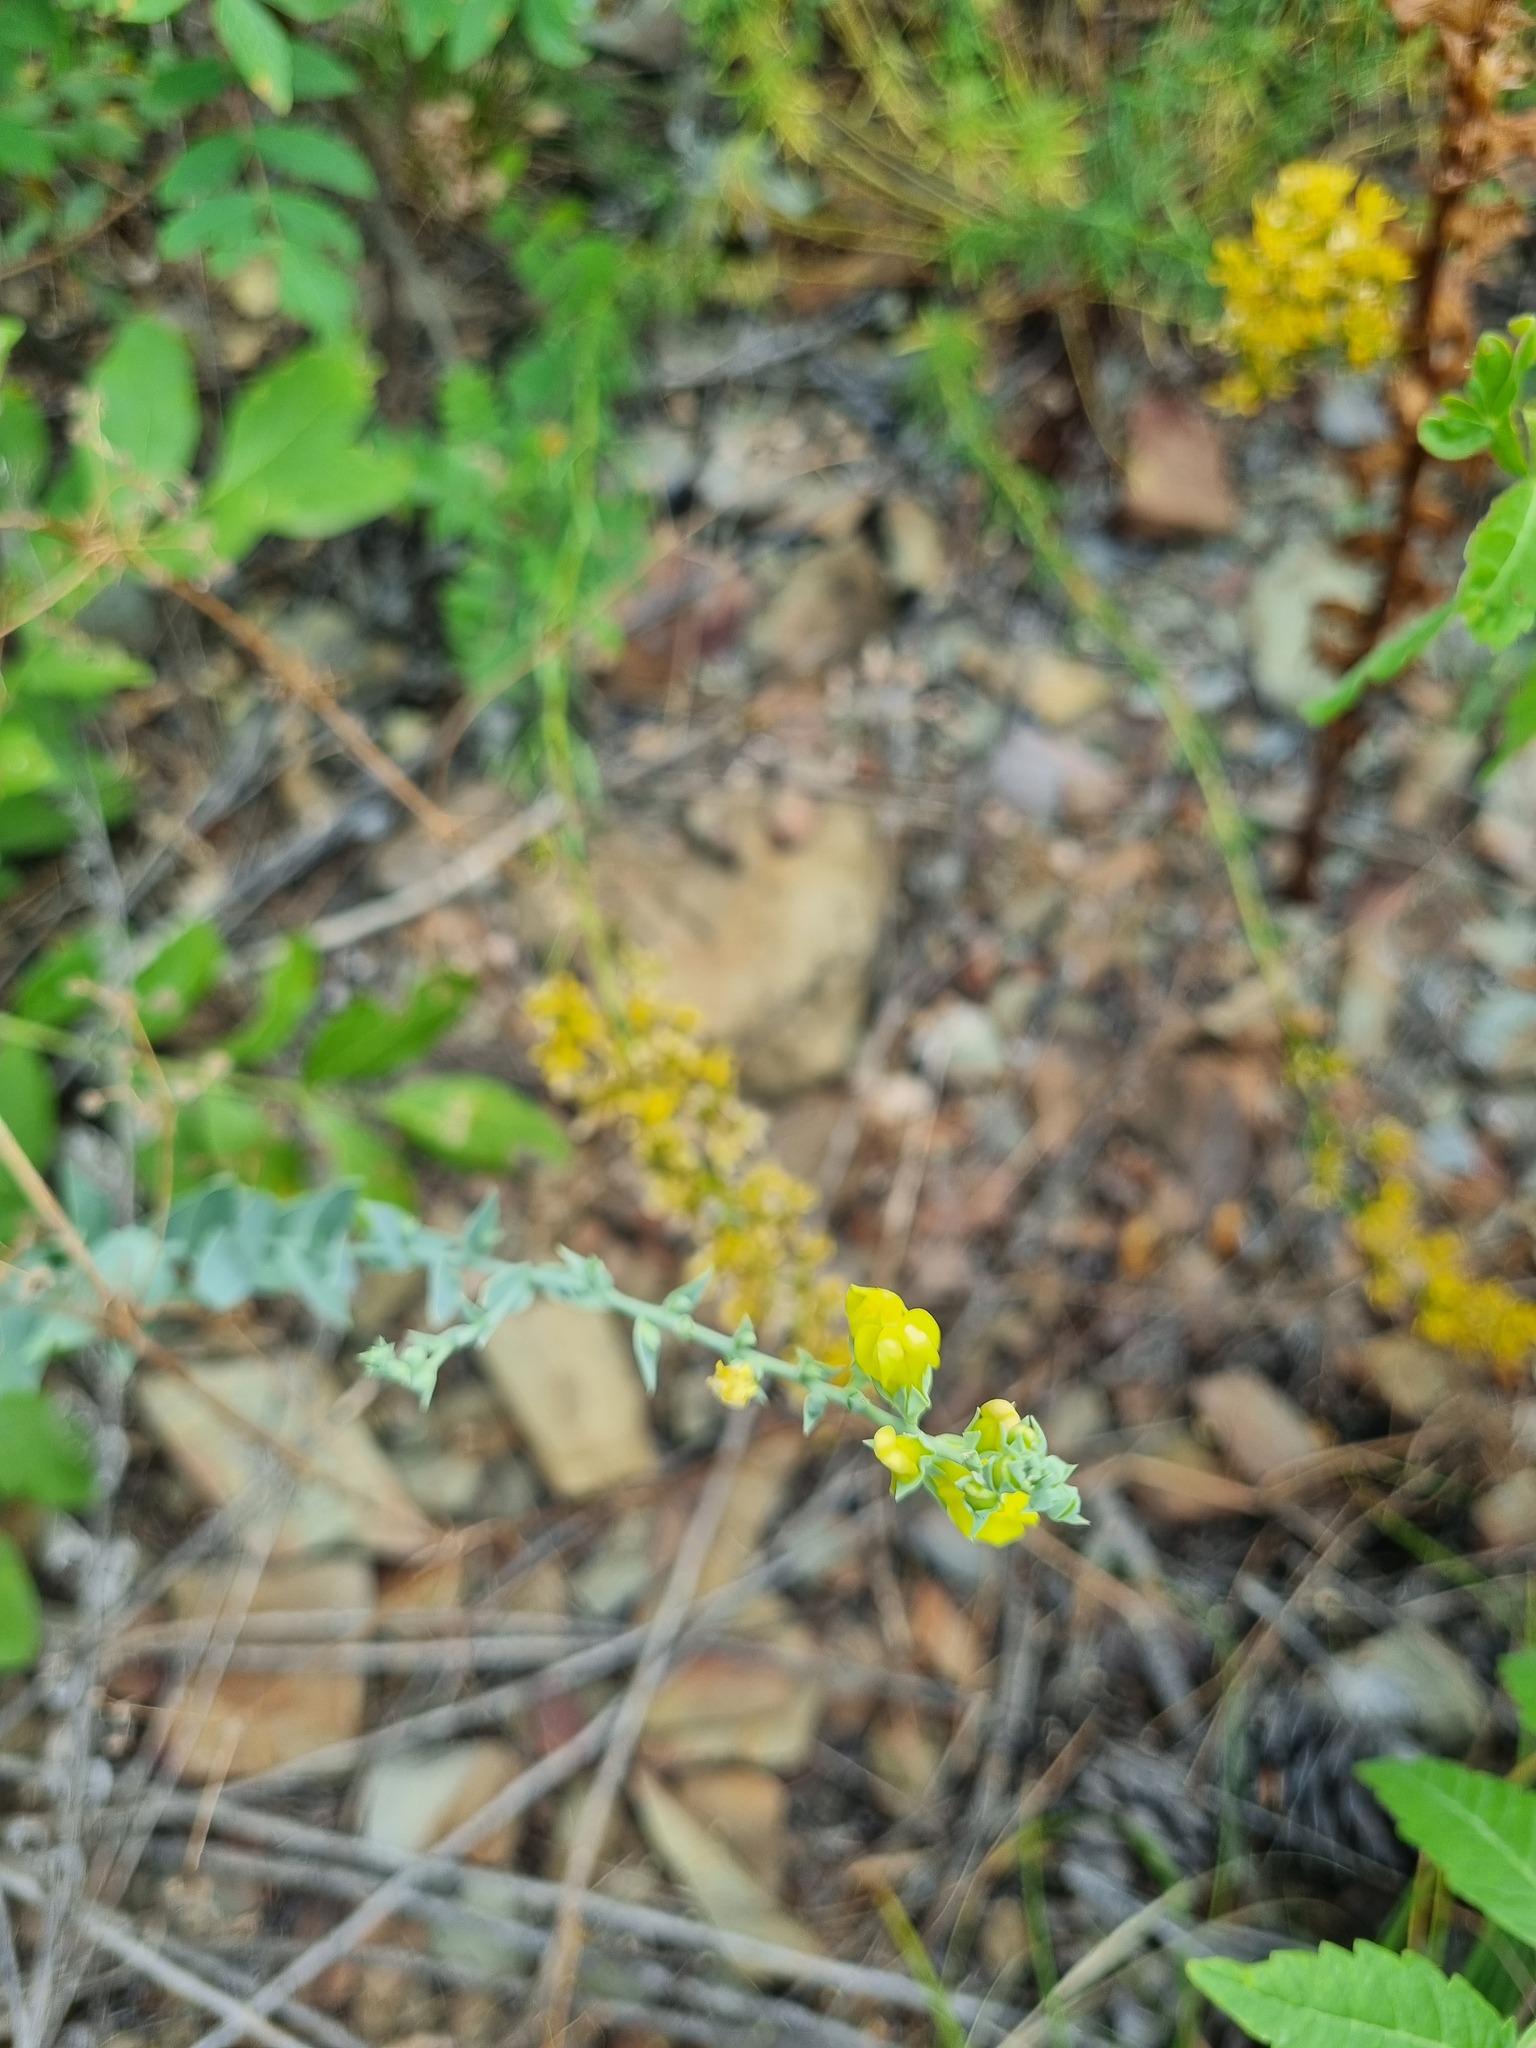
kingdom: Plantae
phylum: Tracheophyta
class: Magnoliopsida
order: Lamiales
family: Plantaginaceae
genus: Linaria
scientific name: Linaria genistifolia
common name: Broomleaf toadflax
